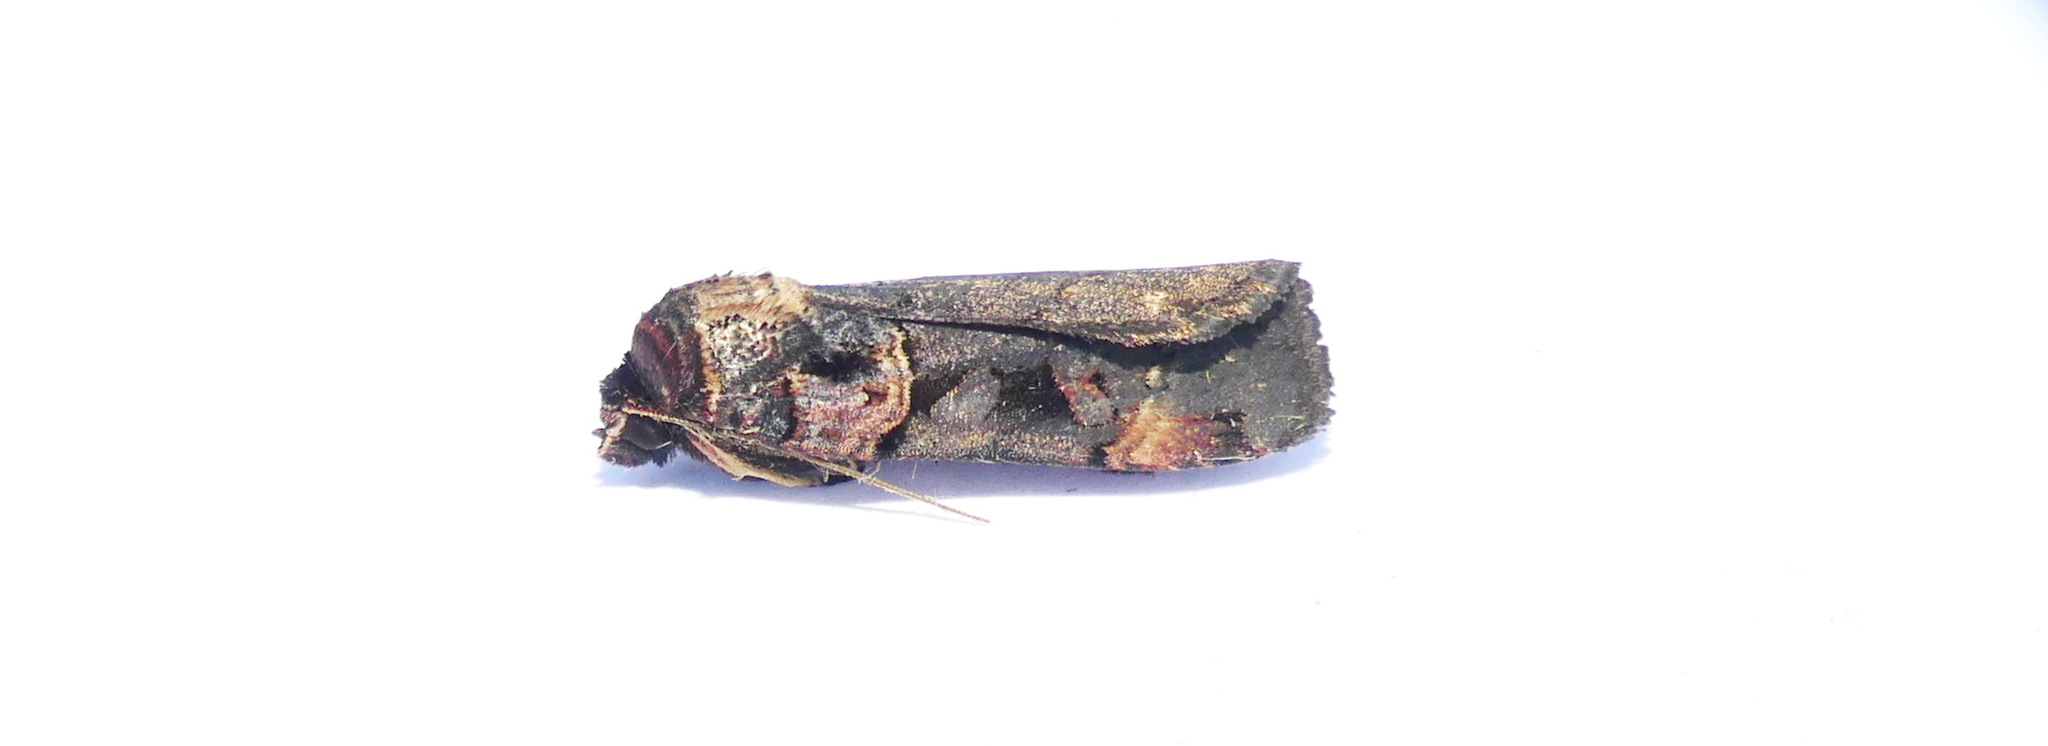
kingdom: Animalia
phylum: Arthropoda
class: Insecta
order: Lepidoptera
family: Noctuidae
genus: Pseudohermonassa
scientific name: Pseudohermonassa bicarnea
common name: Pink spotted dart
